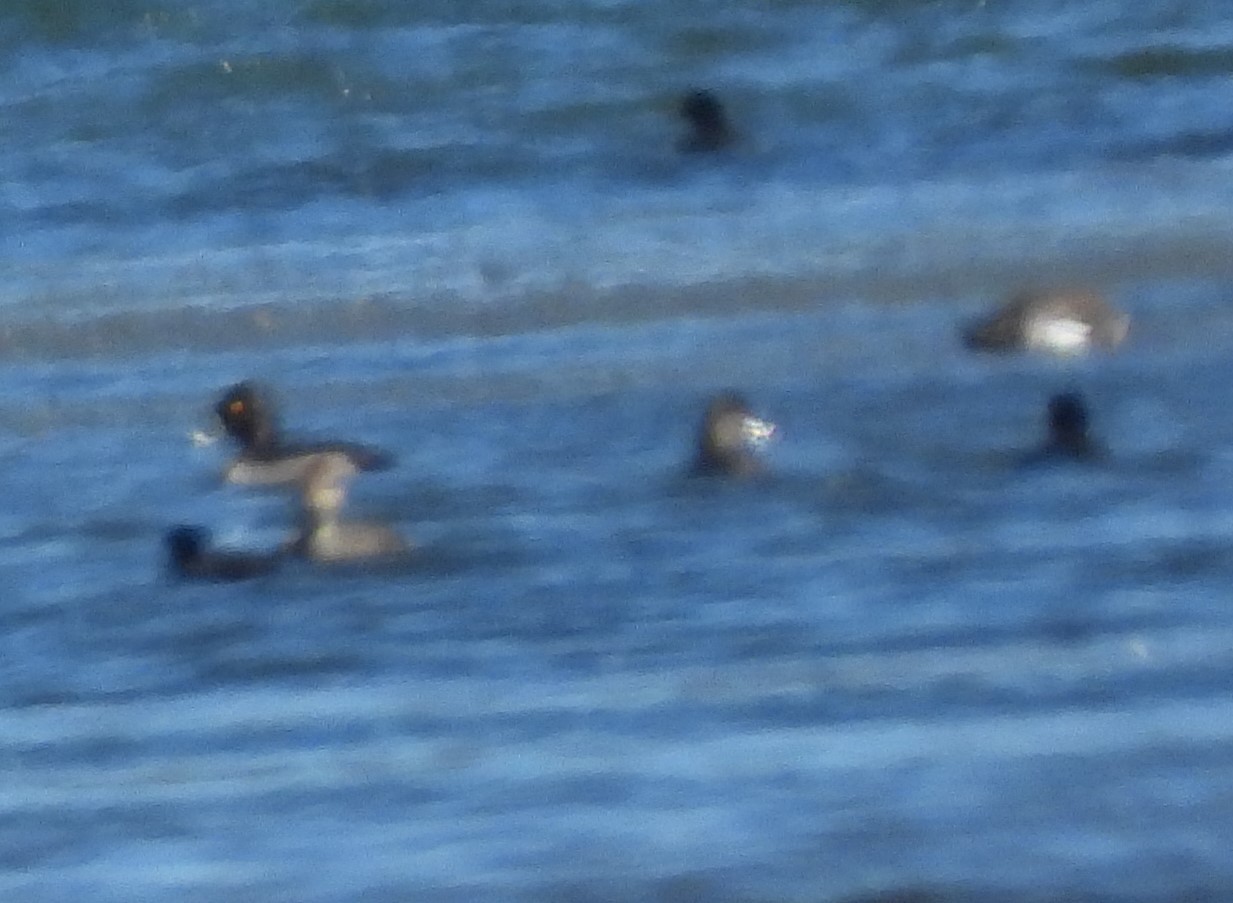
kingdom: Animalia
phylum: Chordata
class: Aves
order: Anseriformes
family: Anatidae
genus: Aythya
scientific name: Aythya collaris
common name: Ring-necked duck
